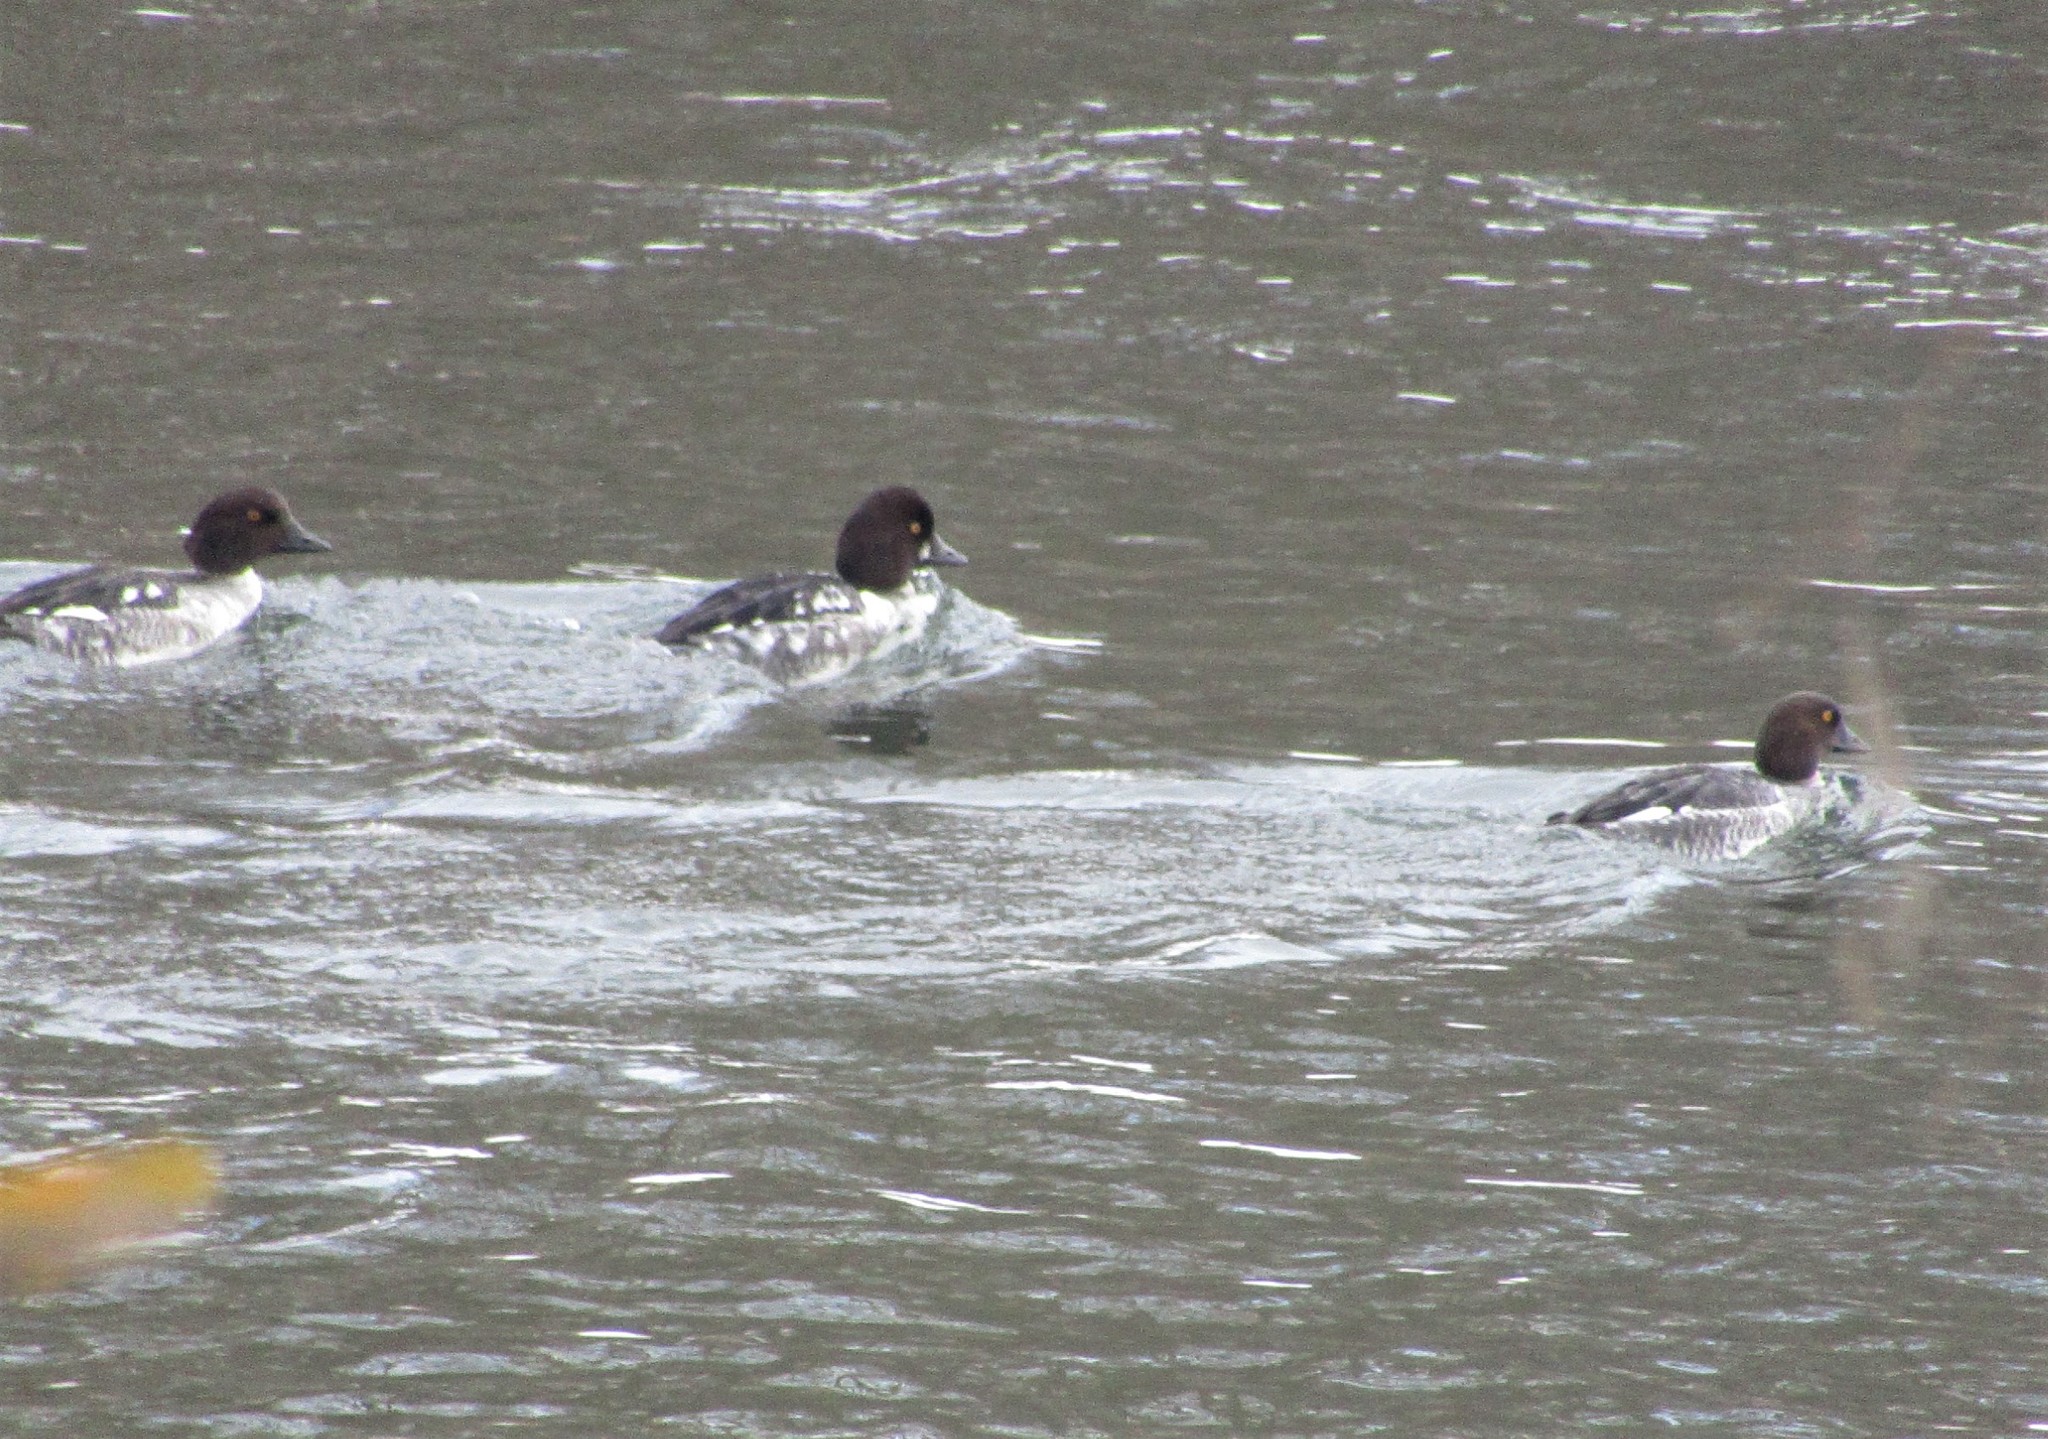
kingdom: Animalia
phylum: Chordata
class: Aves
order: Anseriformes
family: Anatidae
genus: Bucephala
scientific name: Bucephala clangula
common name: Common goldeneye
